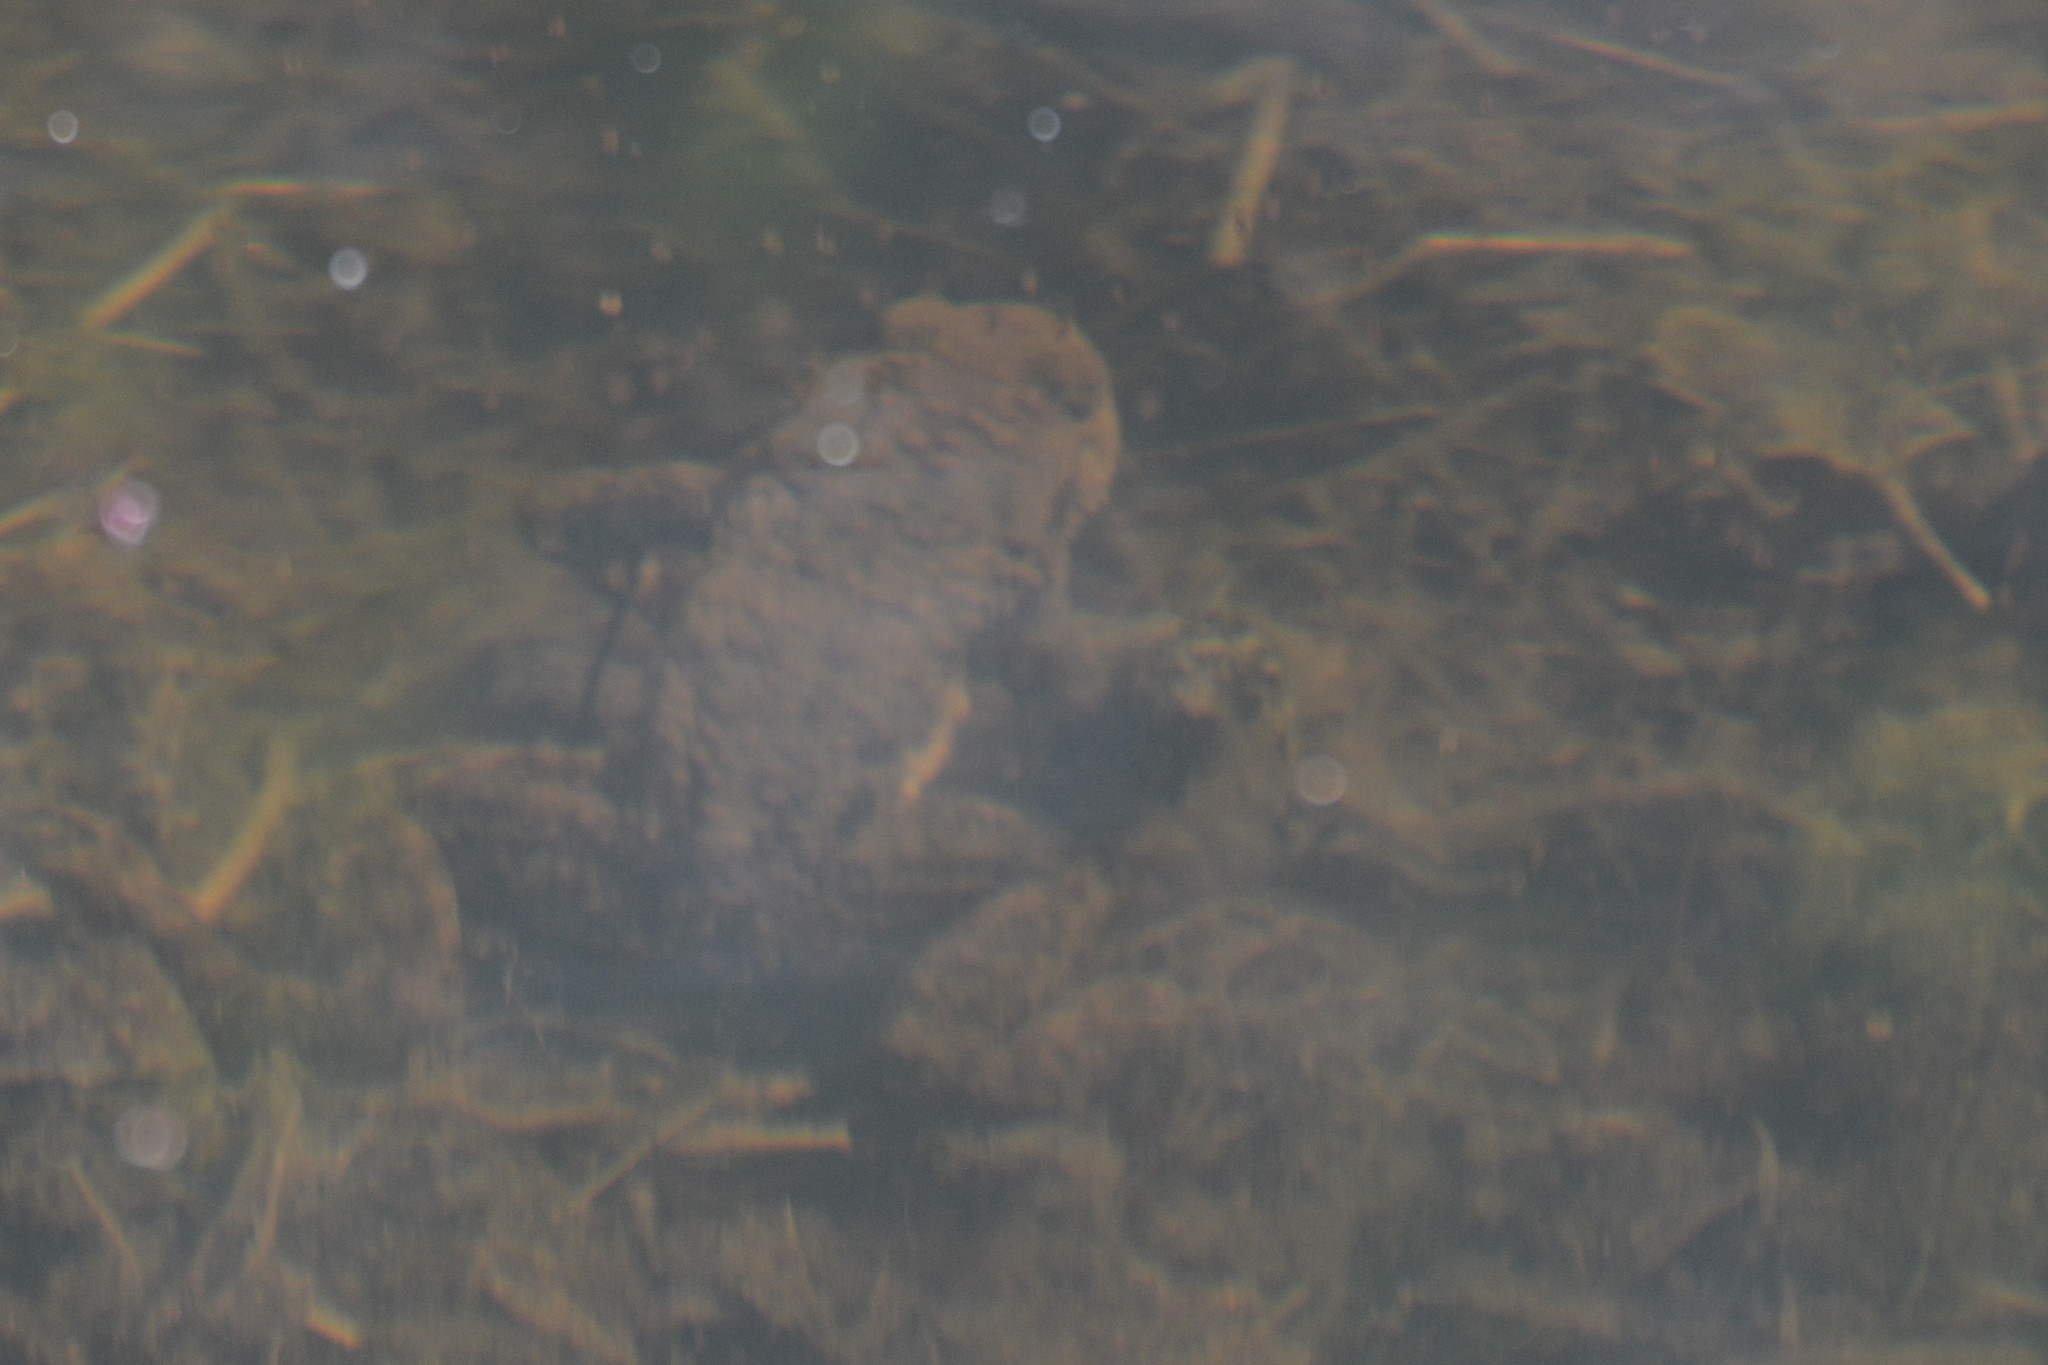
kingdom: Animalia
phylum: Chordata
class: Amphibia
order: Anura
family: Bufonidae
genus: Bufo
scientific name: Bufo bufo
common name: Common toad
